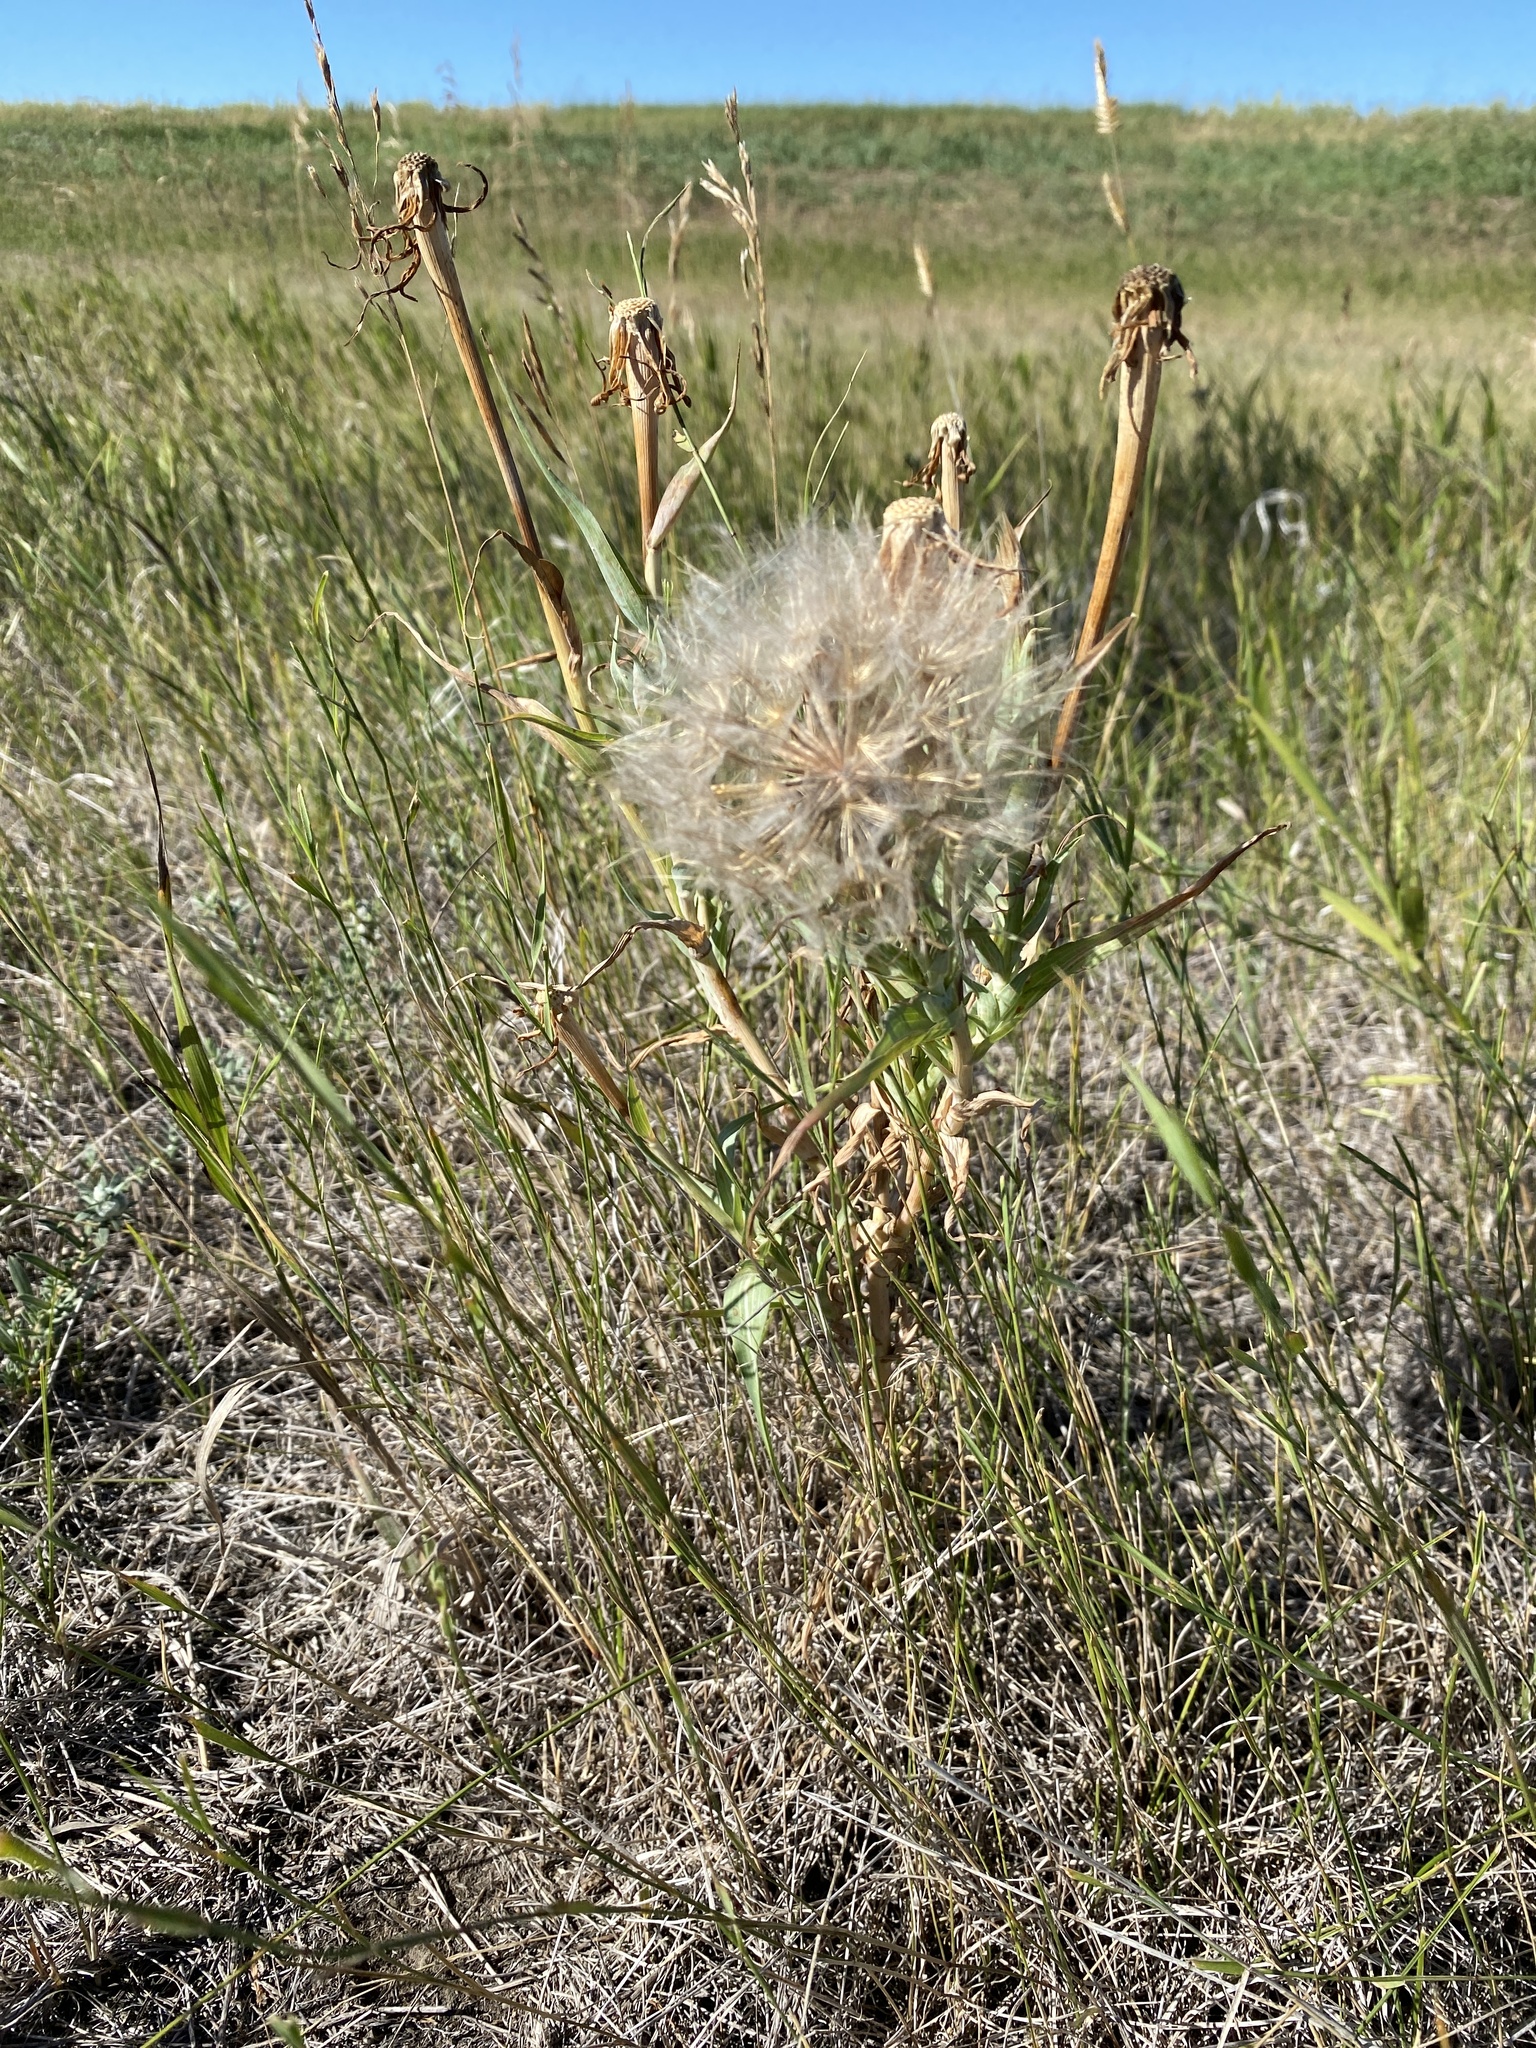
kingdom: Plantae
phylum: Tracheophyta
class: Magnoliopsida
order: Asterales
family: Asteraceae
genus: Tragopogon
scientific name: Tragopogon dubius
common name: Yellow salsify
